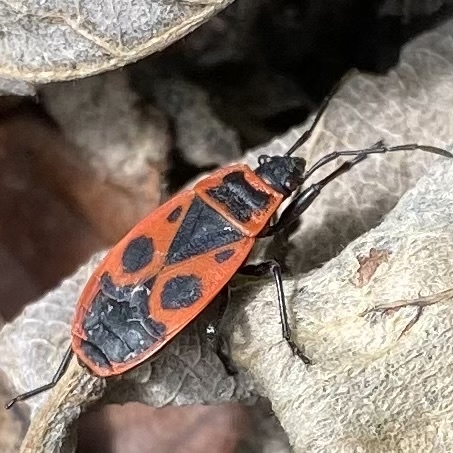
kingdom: Animalia
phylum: Arthropoda
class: Insecta
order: Hemiptera
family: Pyrrhocoridae
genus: Pyrrhocoris
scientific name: Pyrrhocoris apterus
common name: Firebug
